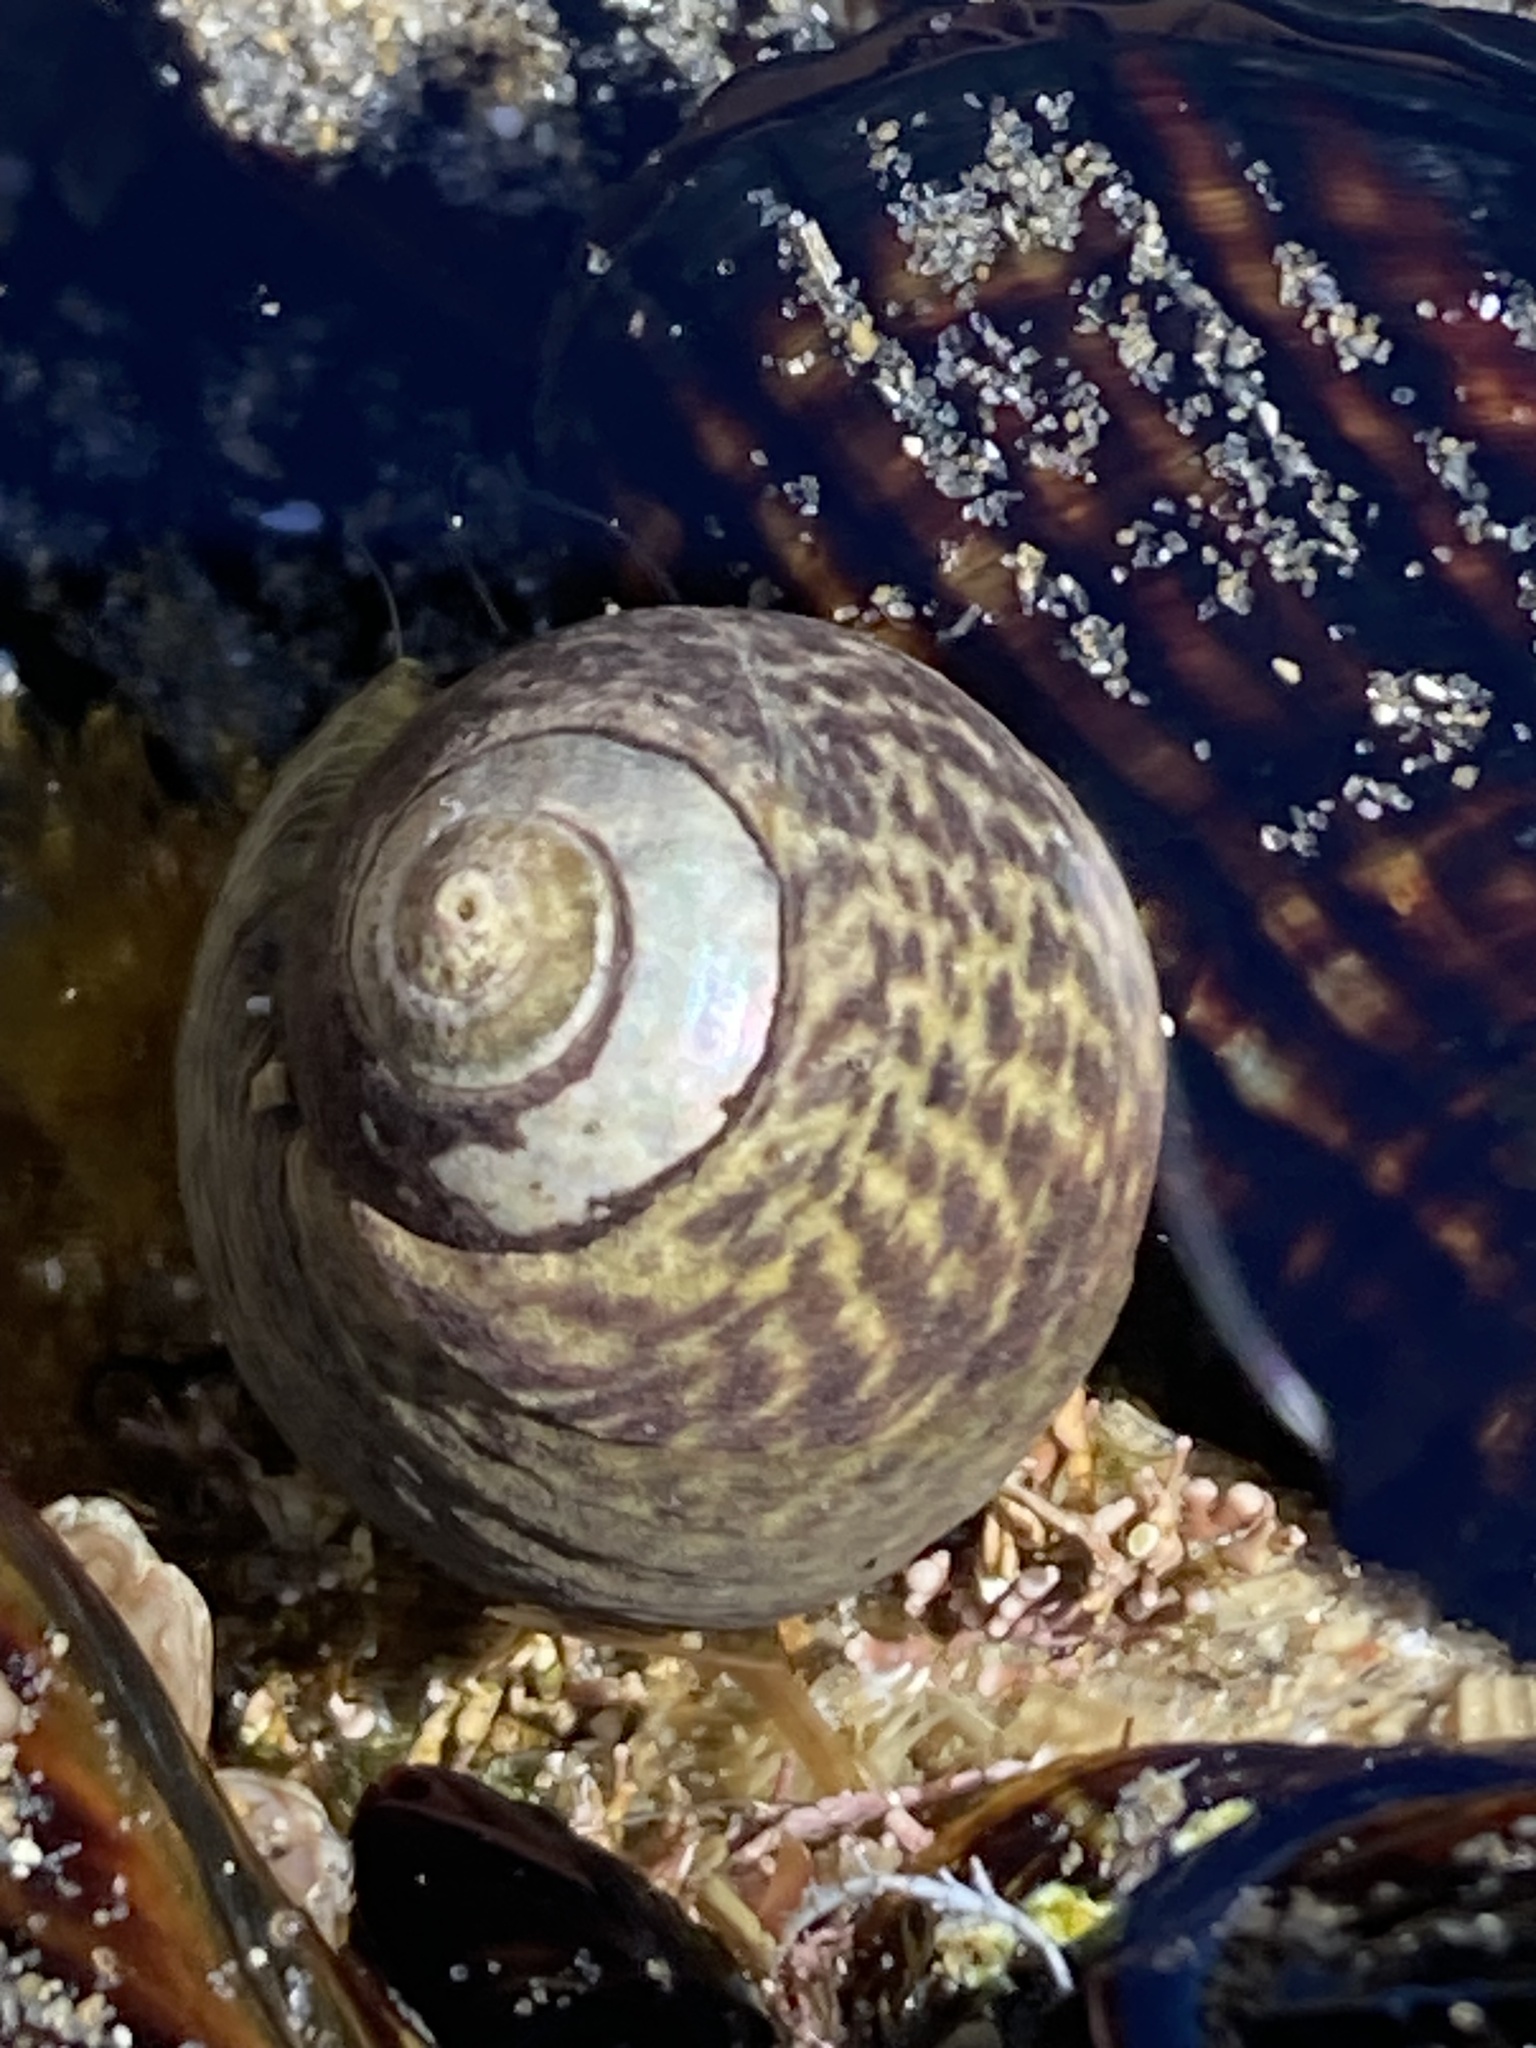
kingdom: Animalia
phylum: Mollusca
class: Gastropoda
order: Trochida
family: Tegulidae
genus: Tegula
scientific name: Tegula gallina
